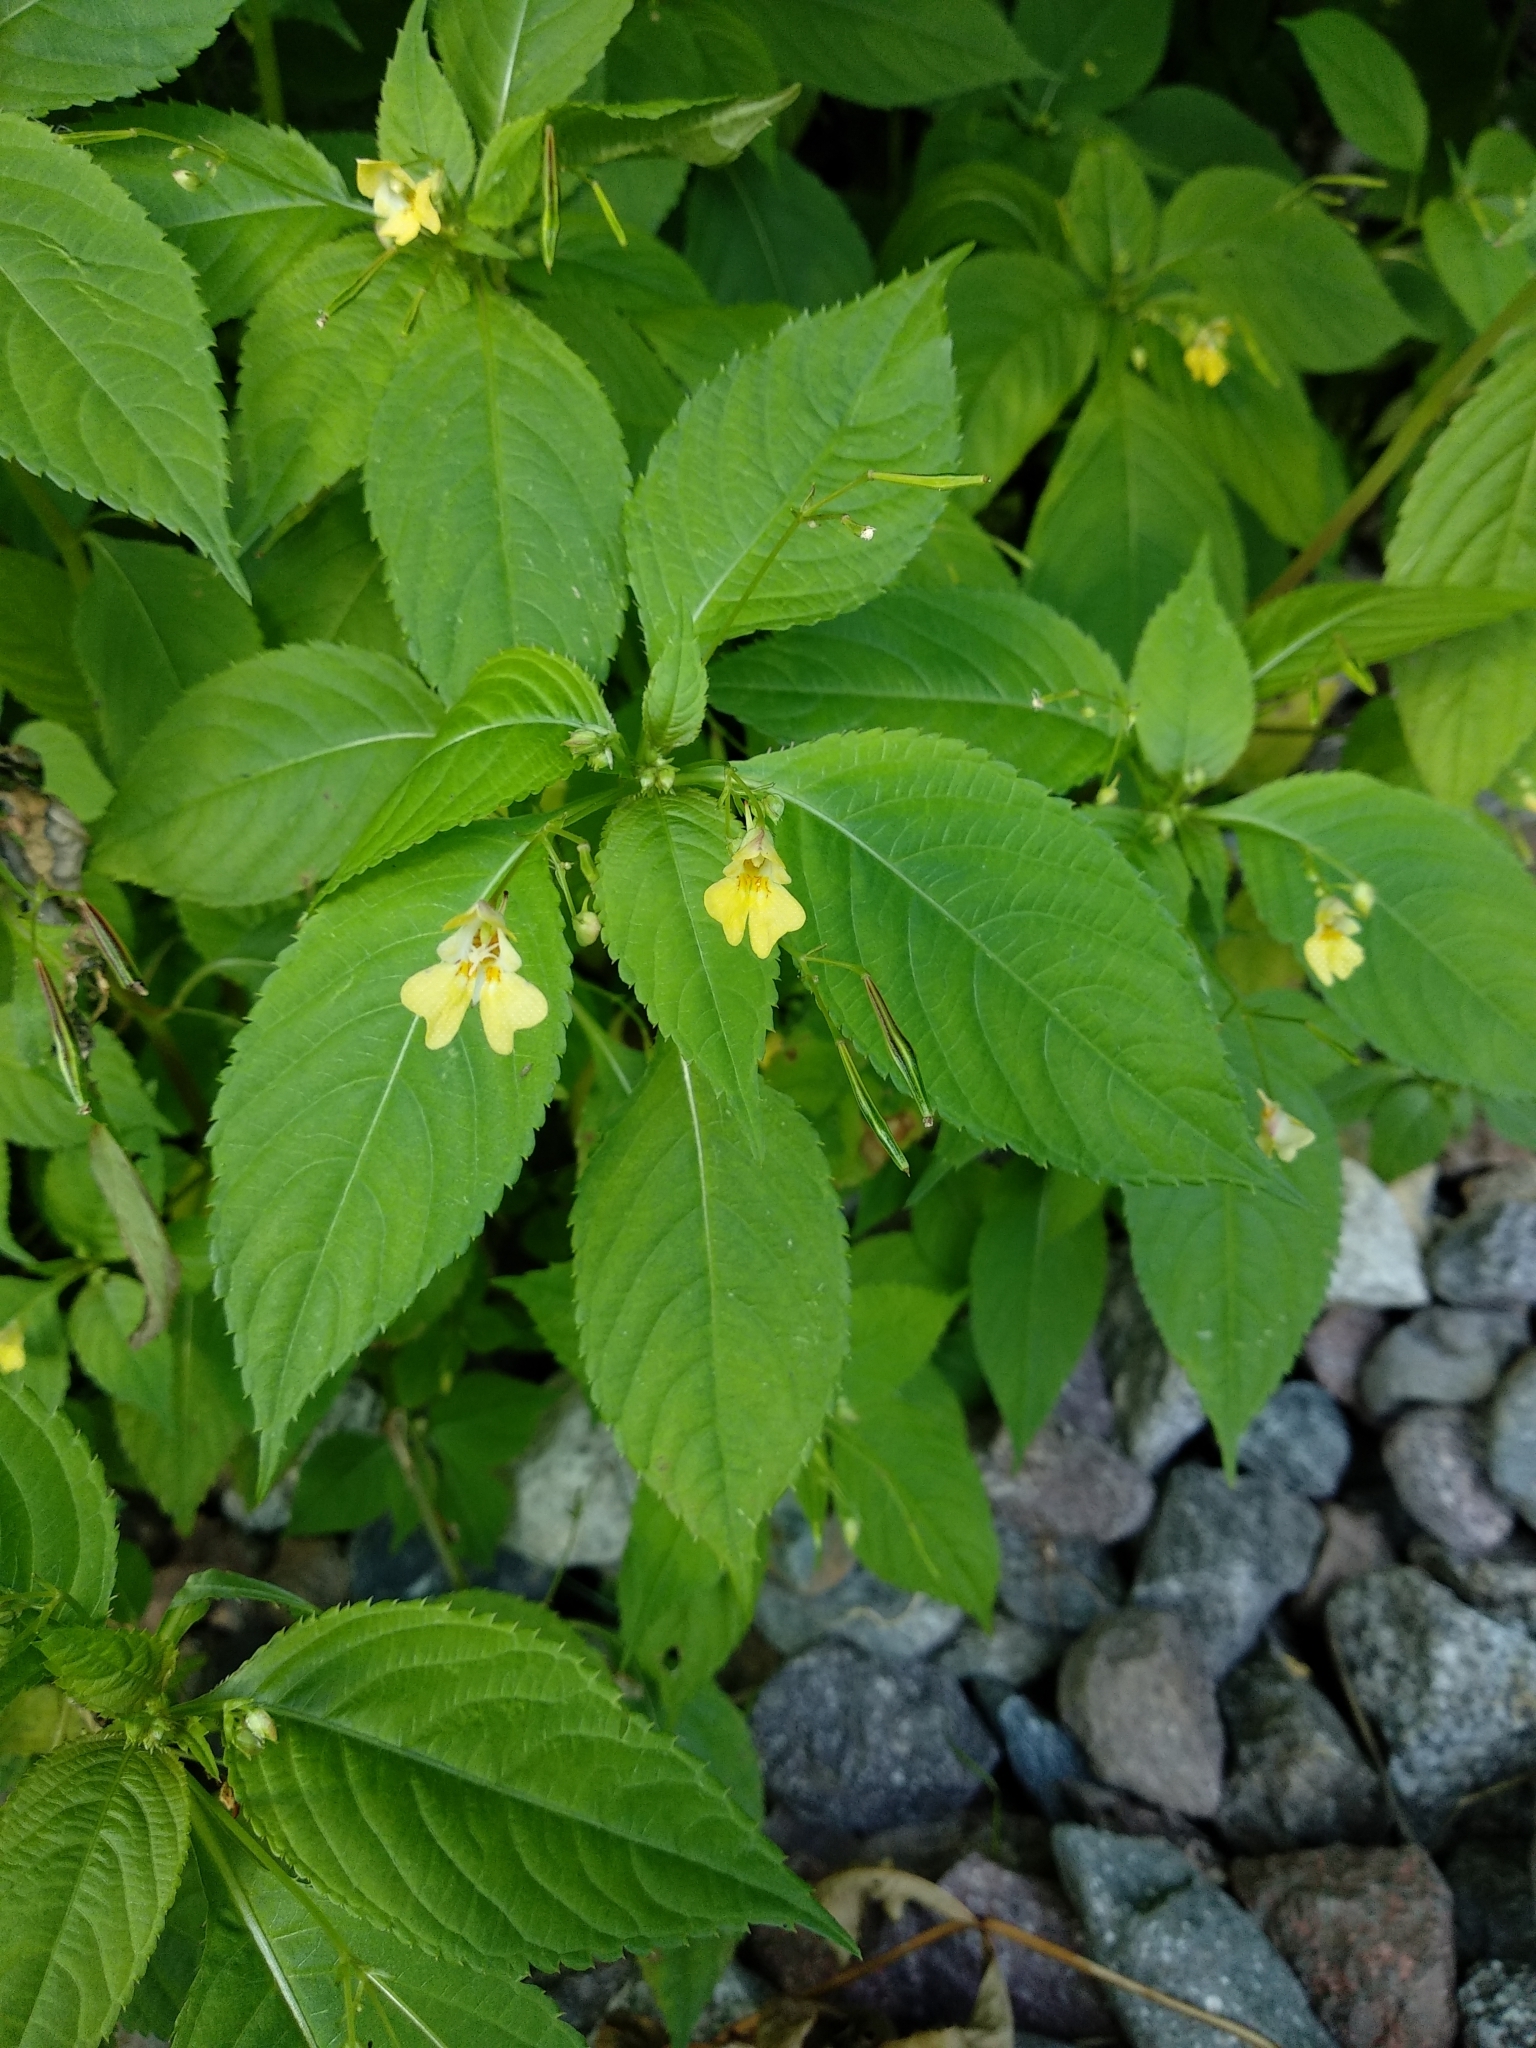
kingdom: Plantae
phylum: Tracheophyta
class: Magnoliopsida
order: Ericales
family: Balsaminaceae
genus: Impatiens
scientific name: Impatiens parviflora
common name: Small balsam
